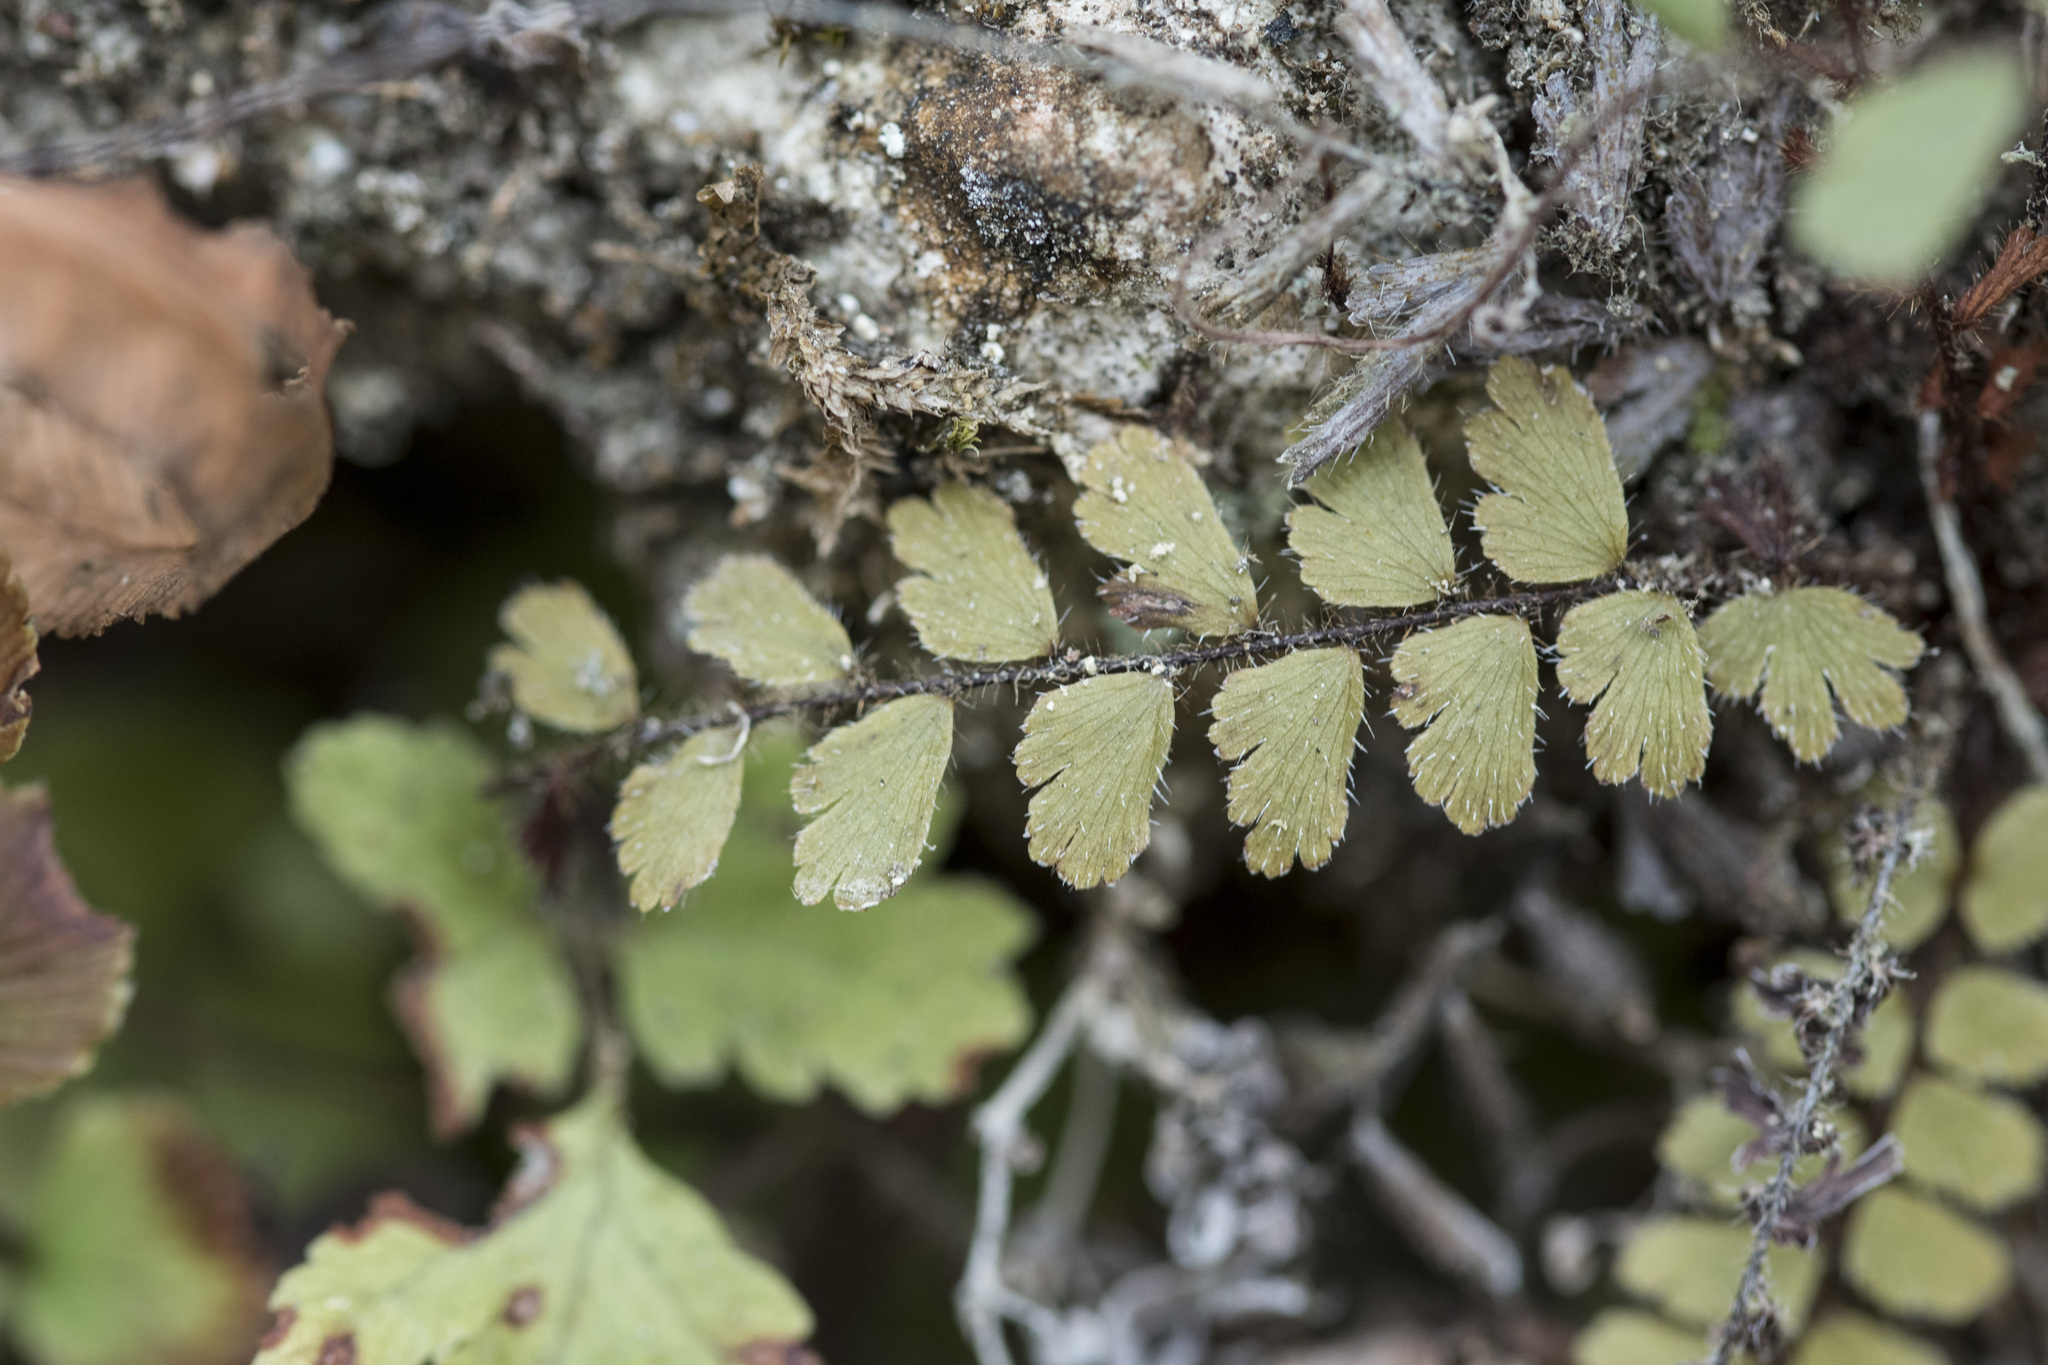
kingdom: Plantae
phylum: Tracheophyta
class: Polypodiopsida
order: Polypodiales
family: Pteridaceae
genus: Adiantum
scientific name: Adiantum caudatum
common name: Tailed maidenhair
